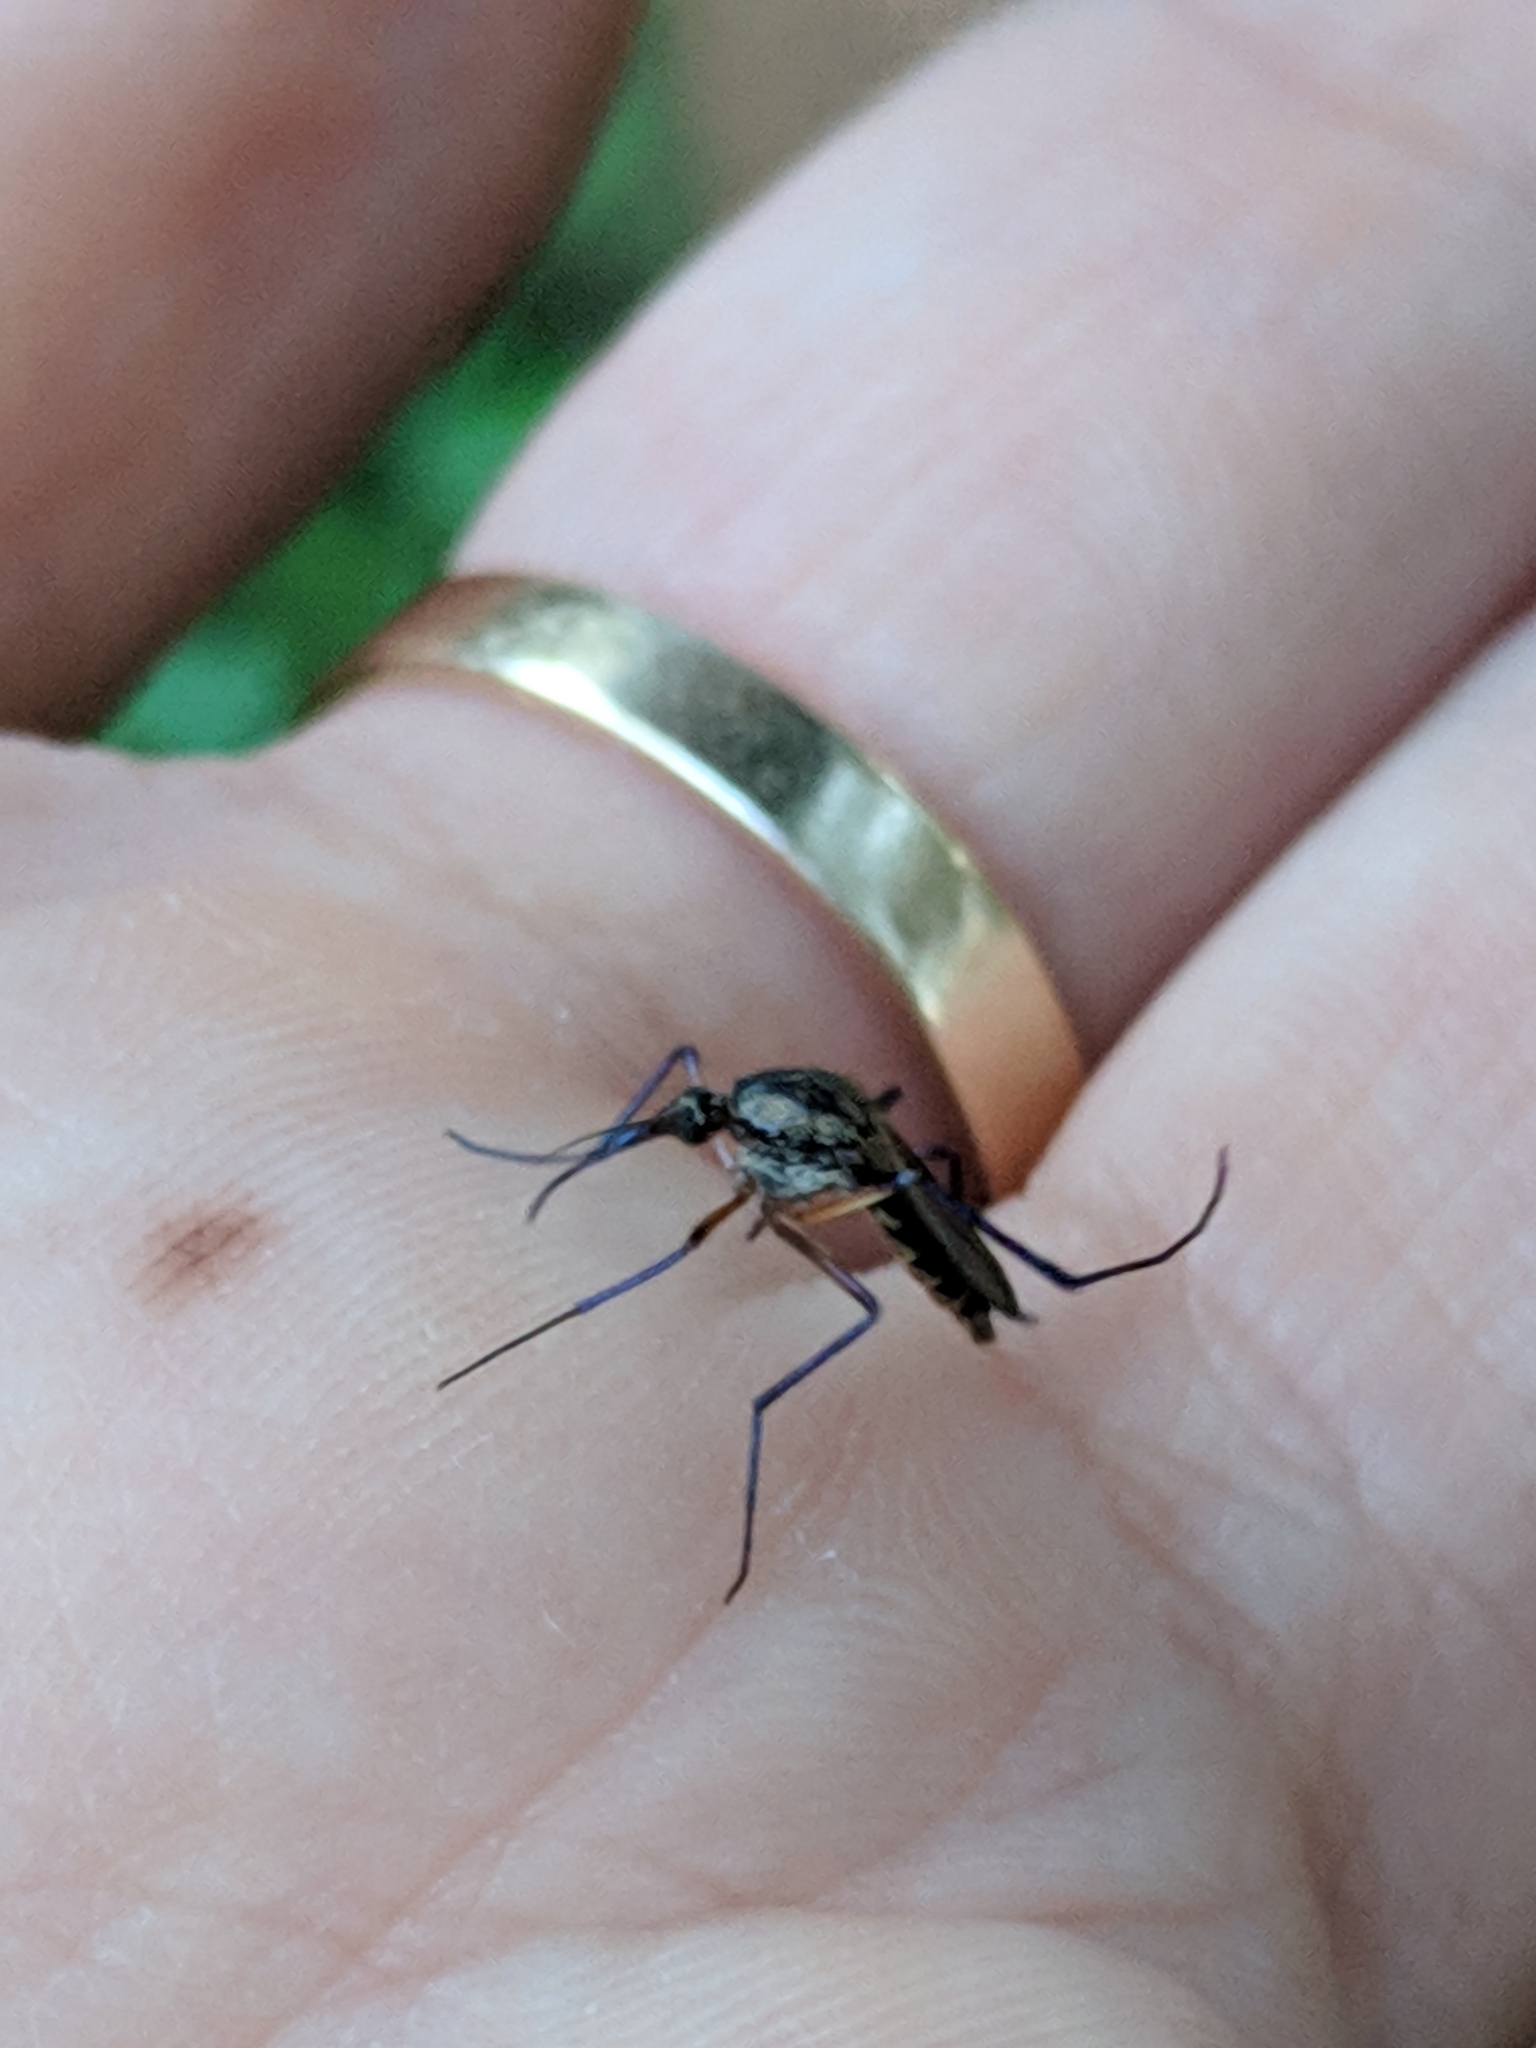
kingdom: Animalia
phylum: Arthropoda
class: Insecta
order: Diptera
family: Culicidae
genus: Psorophora
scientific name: Psorophora cyanescens
